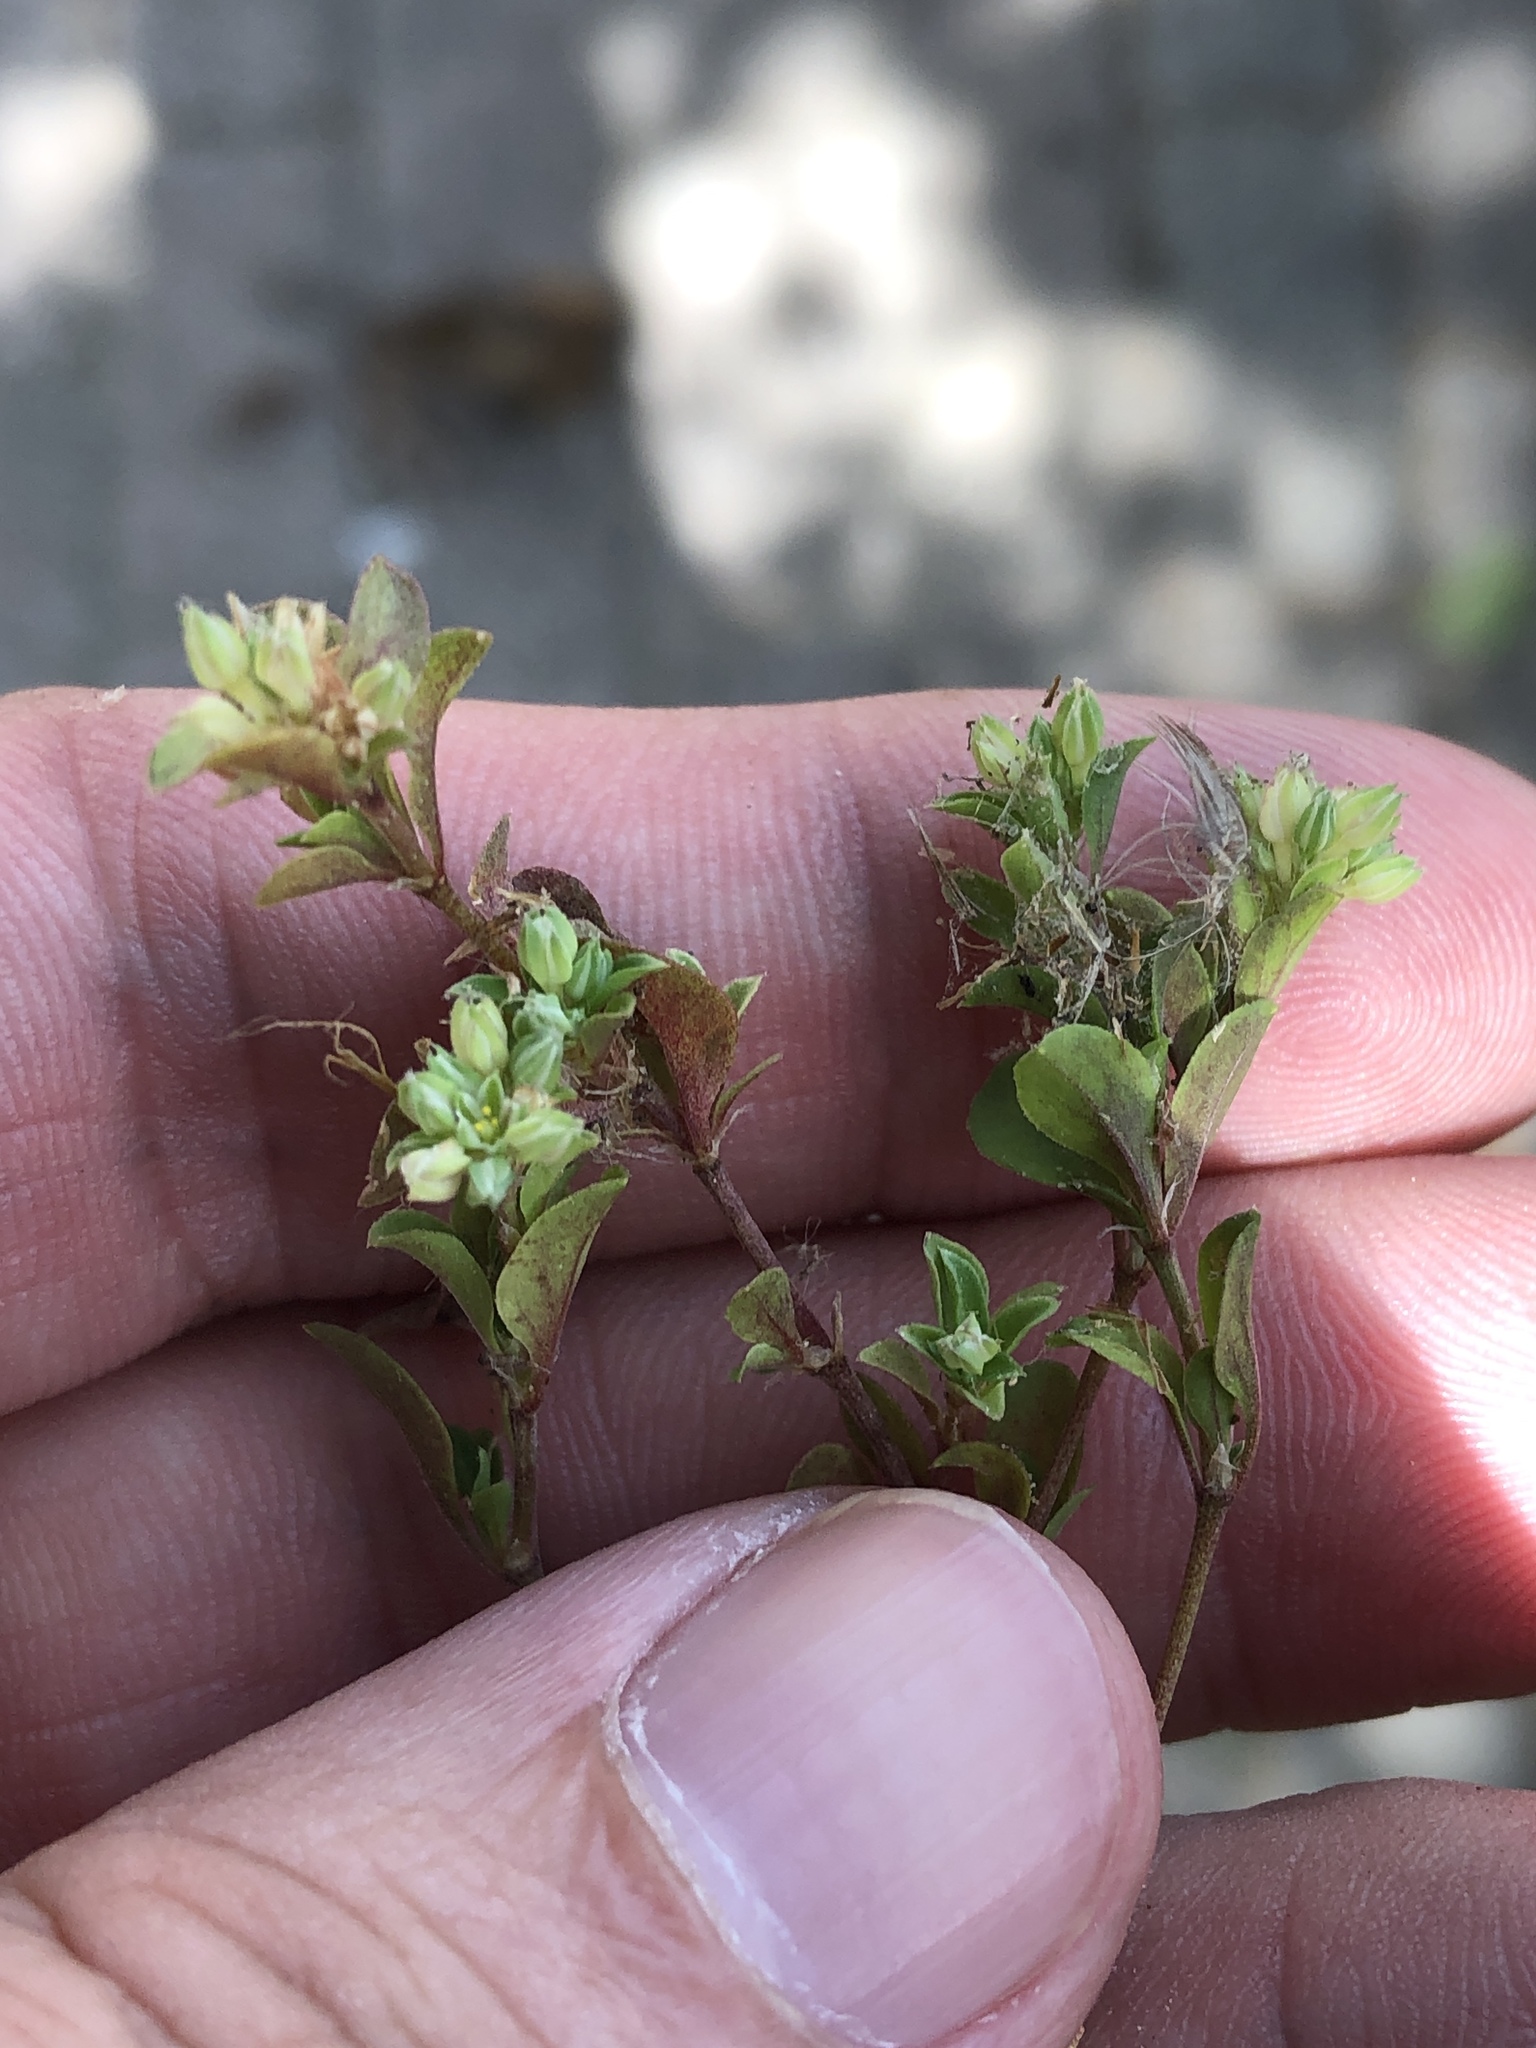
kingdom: Plantae
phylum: Tracheophyta
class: Magnoliopsida
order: Caryophyllales
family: Caryophyllaceae
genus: Polycarpon
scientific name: Polycarpon tetraphyllum
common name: Four-leaved all-seed
